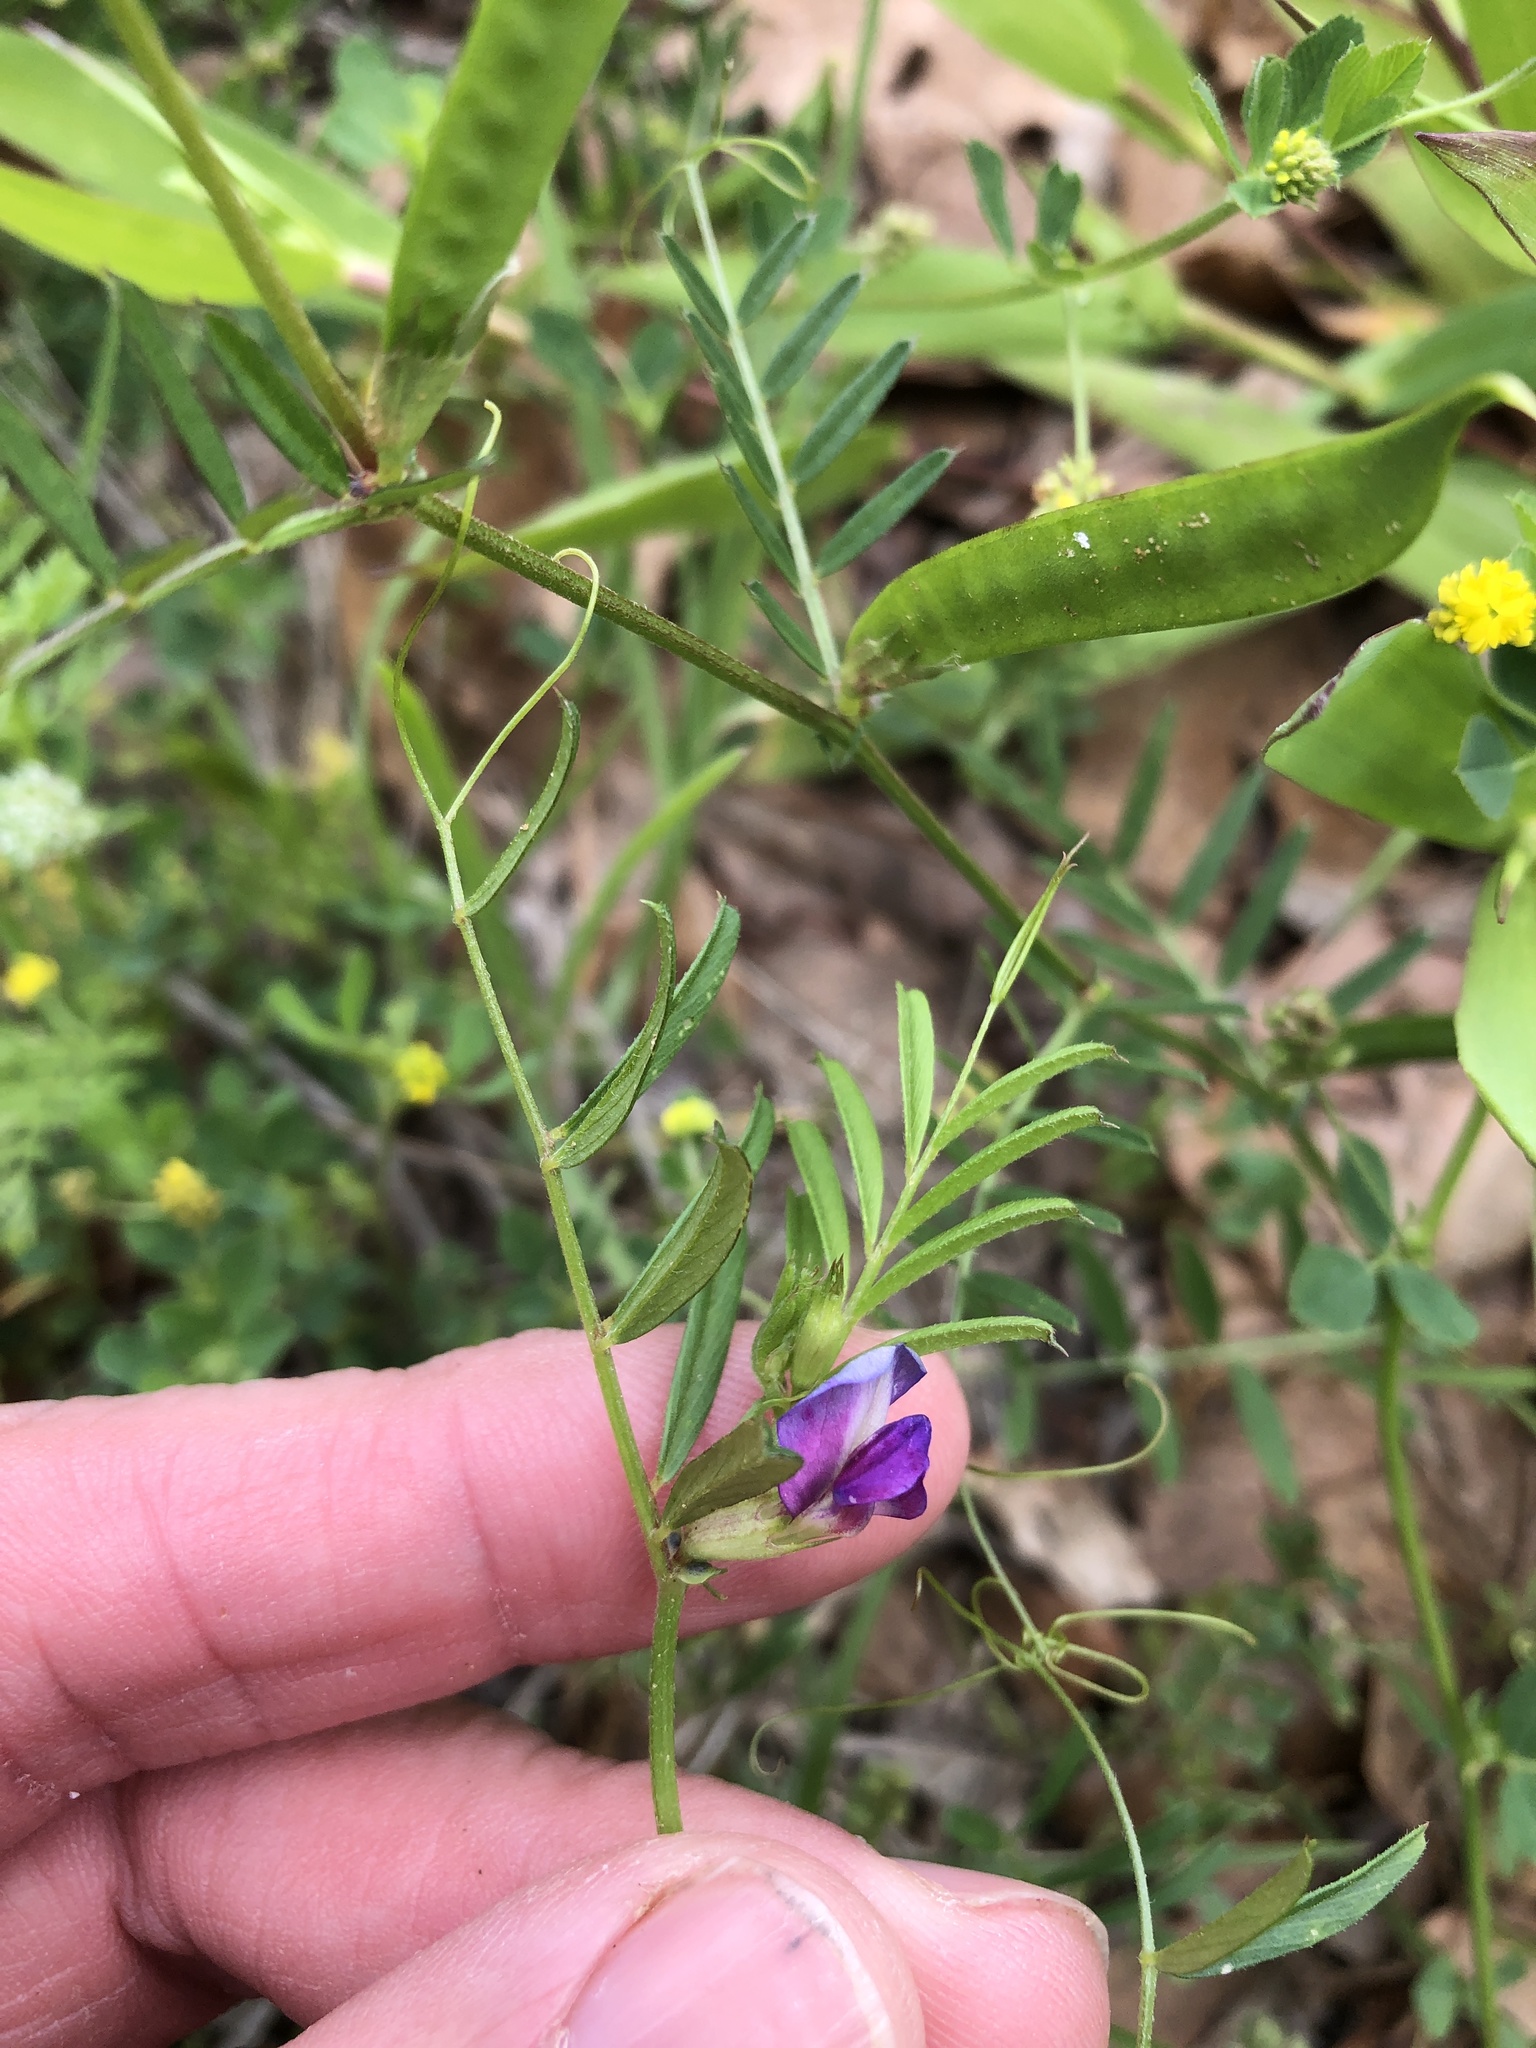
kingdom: Plantae
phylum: Tracheophyta
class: Magnoliopsida
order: Fabales
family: Fabaceae
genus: Vicia
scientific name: Vicia sativa
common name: Garden vetch
